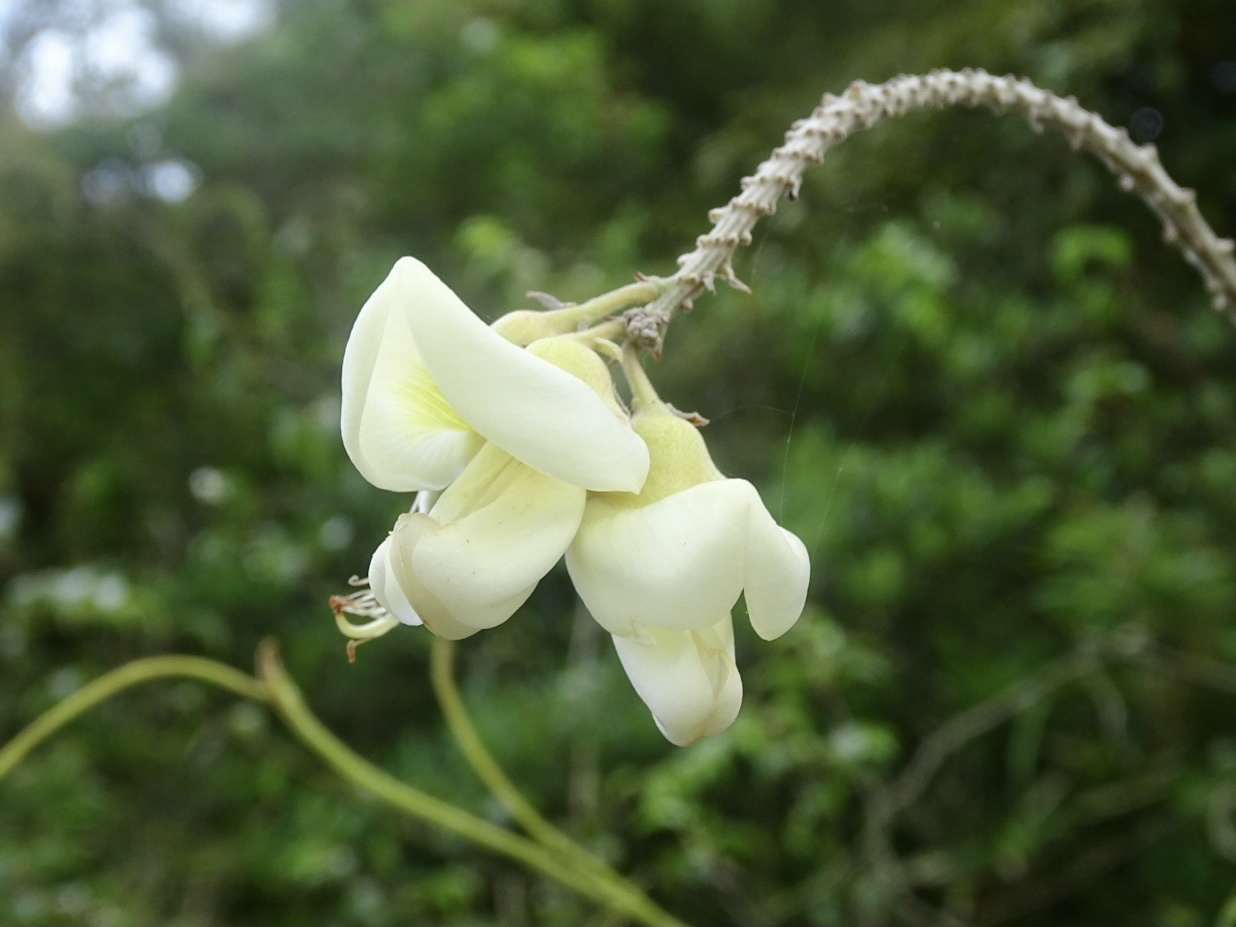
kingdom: Plantae
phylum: Tracheophyta
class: Magnoliopsida
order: Fabales
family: Fabaceae
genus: Nanhaia
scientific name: Nanhaia speciosa
